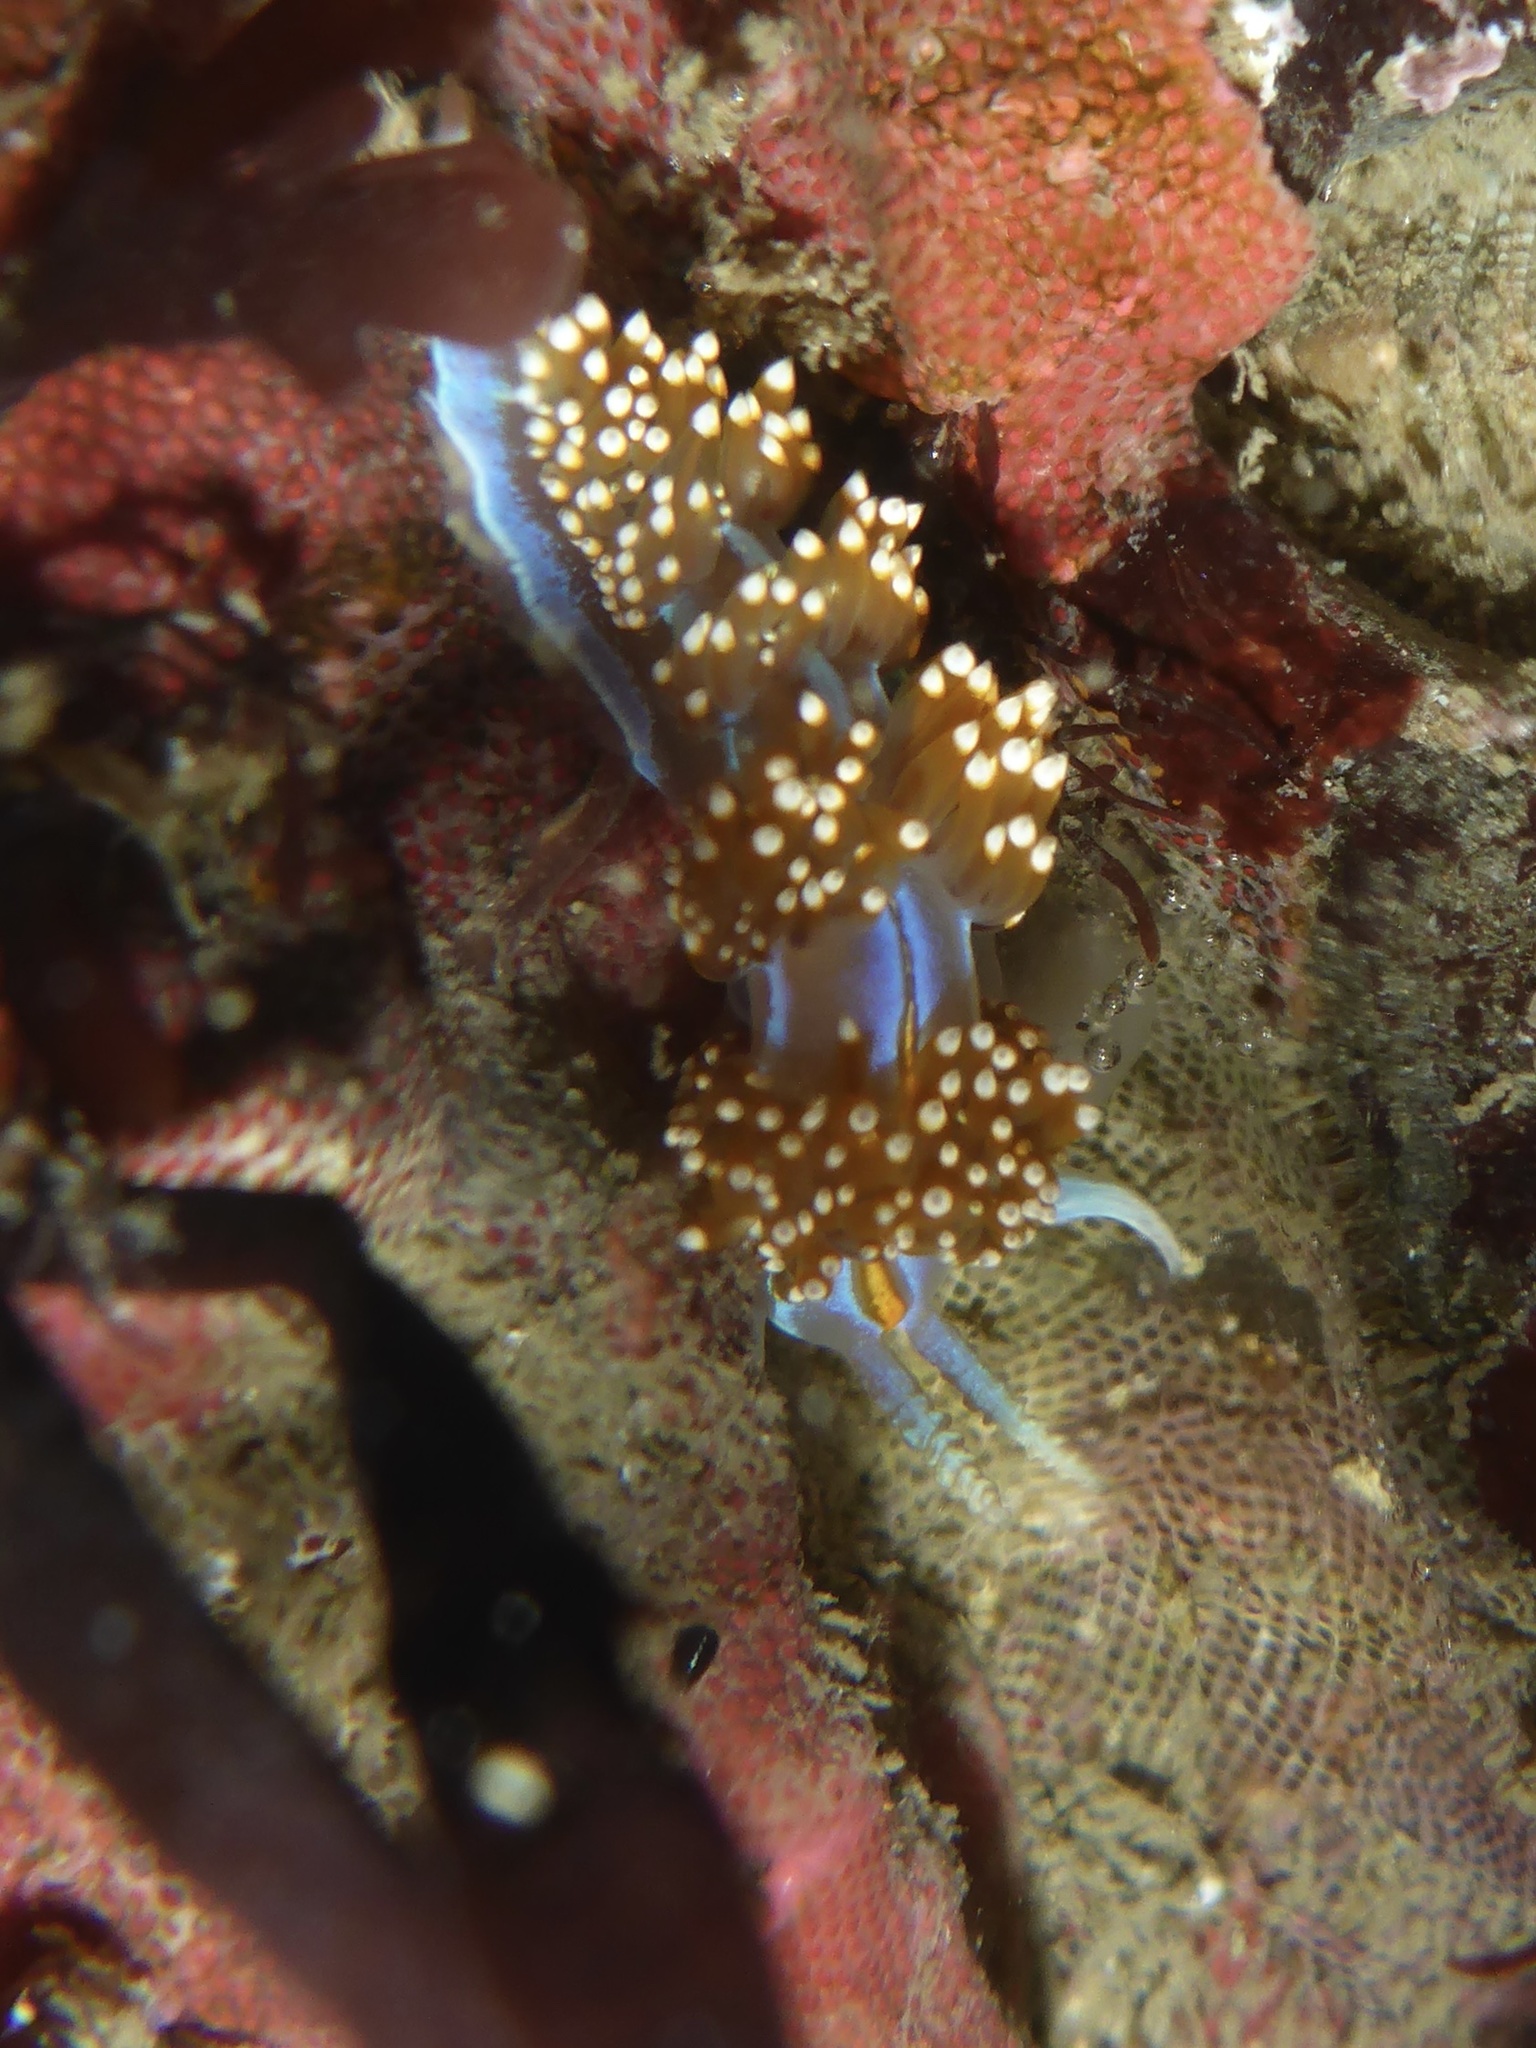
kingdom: Animalia
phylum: Mollusca
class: Gastropoda
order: Nudibranchia
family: Myrrhinidae
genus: Hermissenda
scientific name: Hermissenda opalescens
